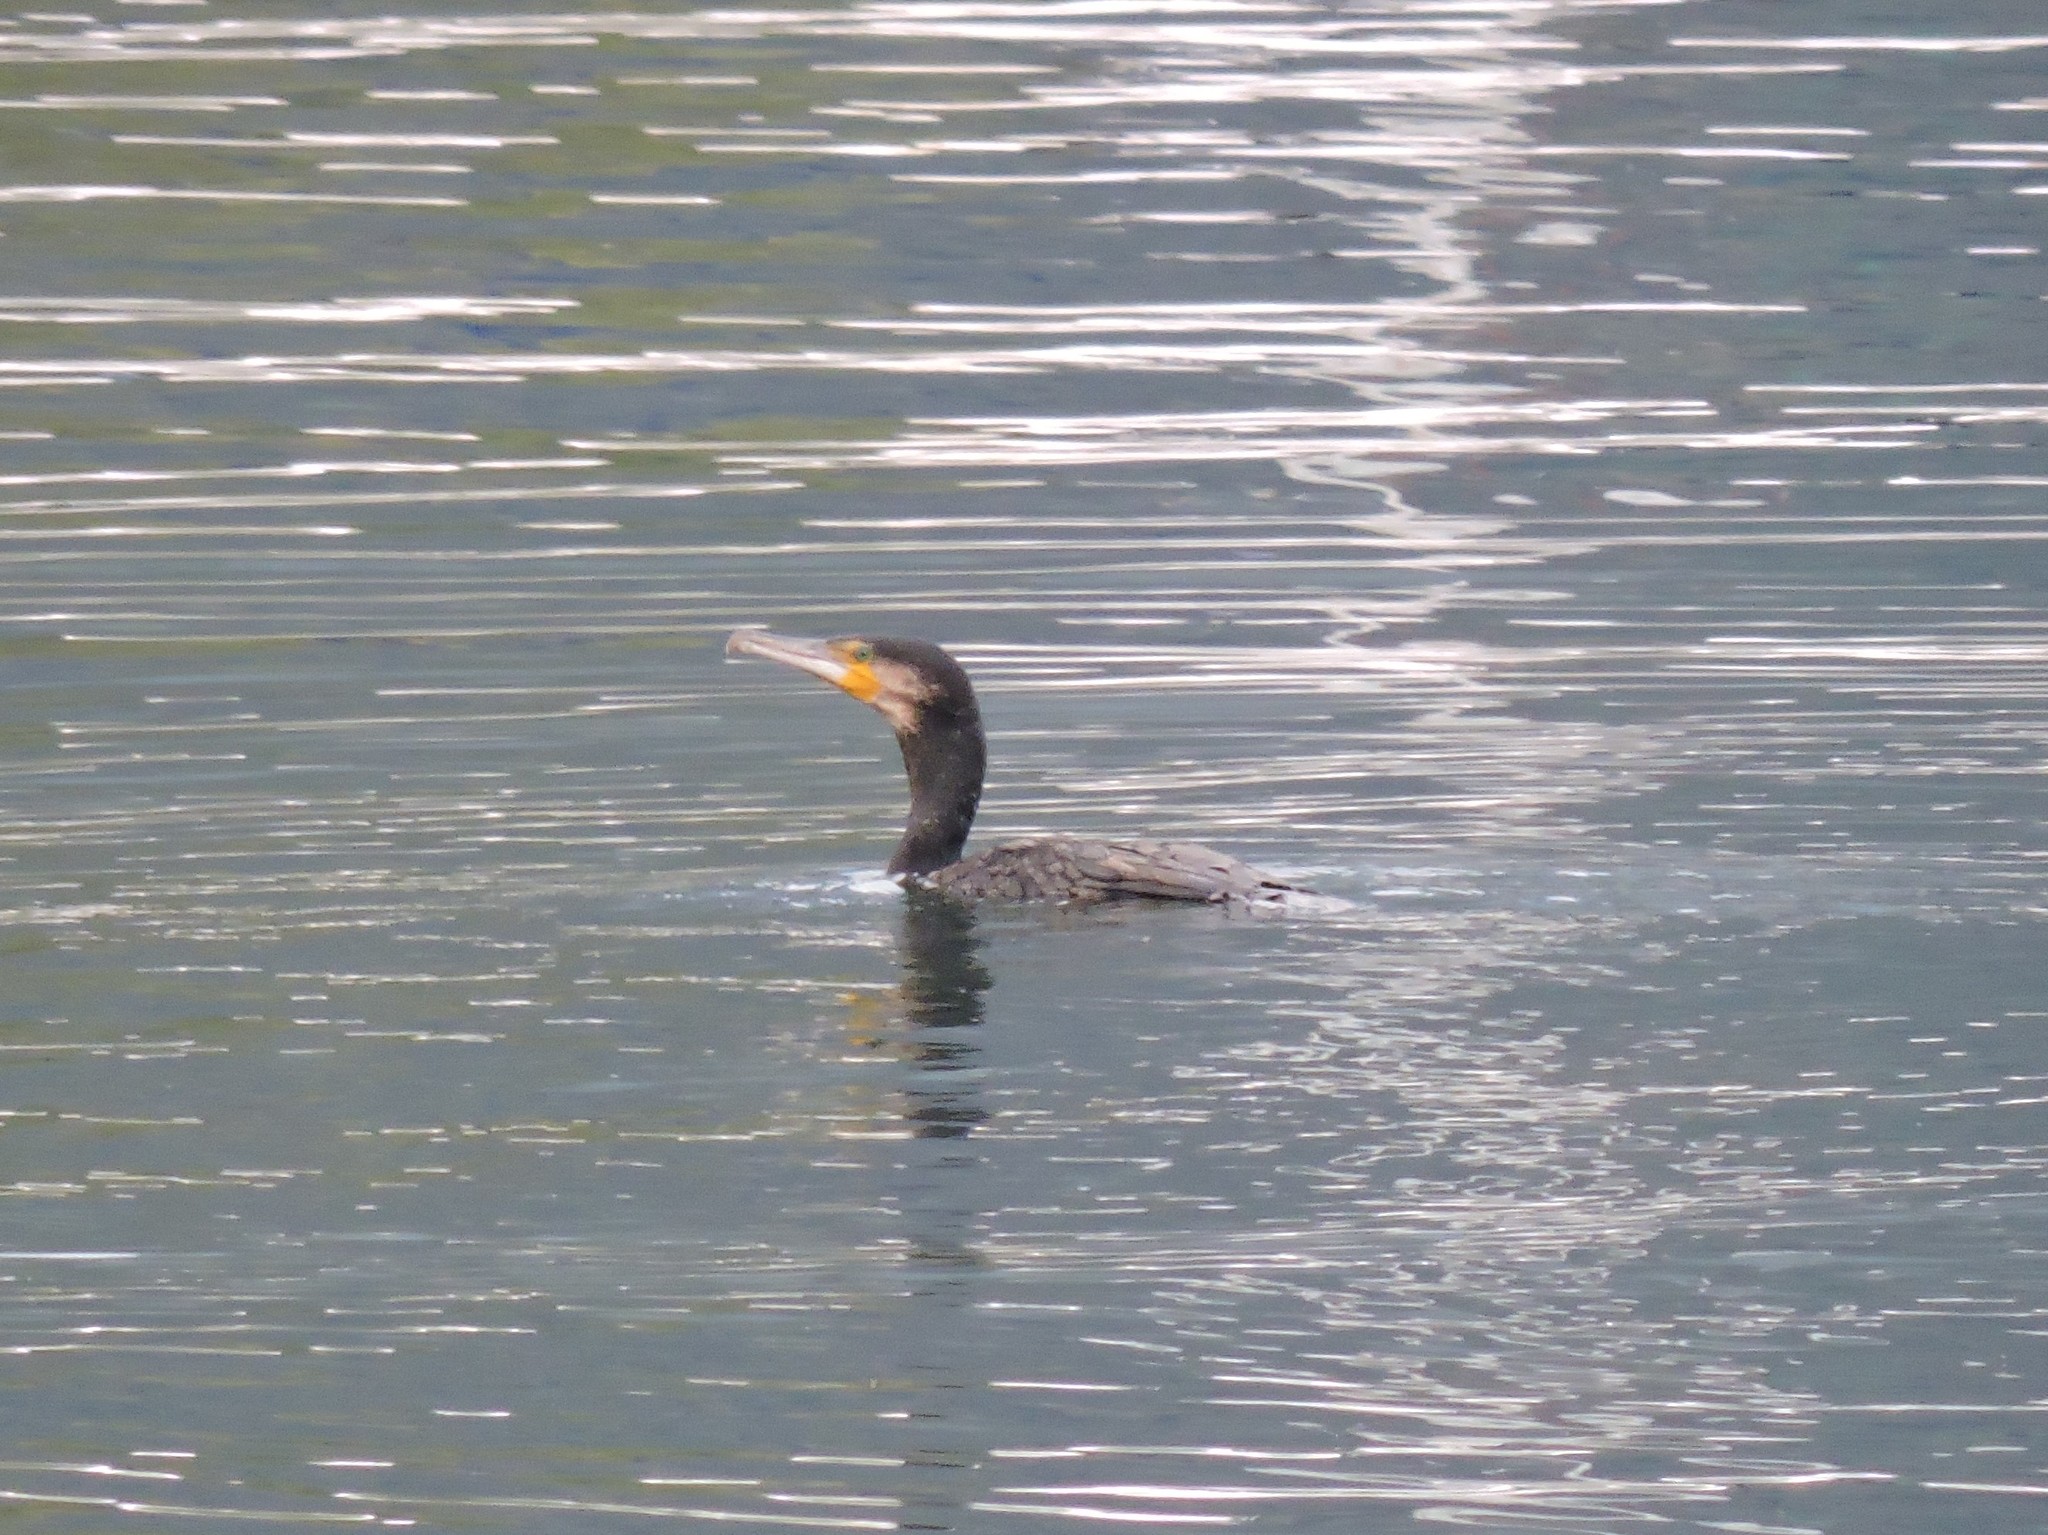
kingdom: Animalia
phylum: Chordata
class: Aves
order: Suliformes
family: Phalacrocoracidae
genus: Phalacrocorax
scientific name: Phalacrocorax carbo
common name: Great cormorant
